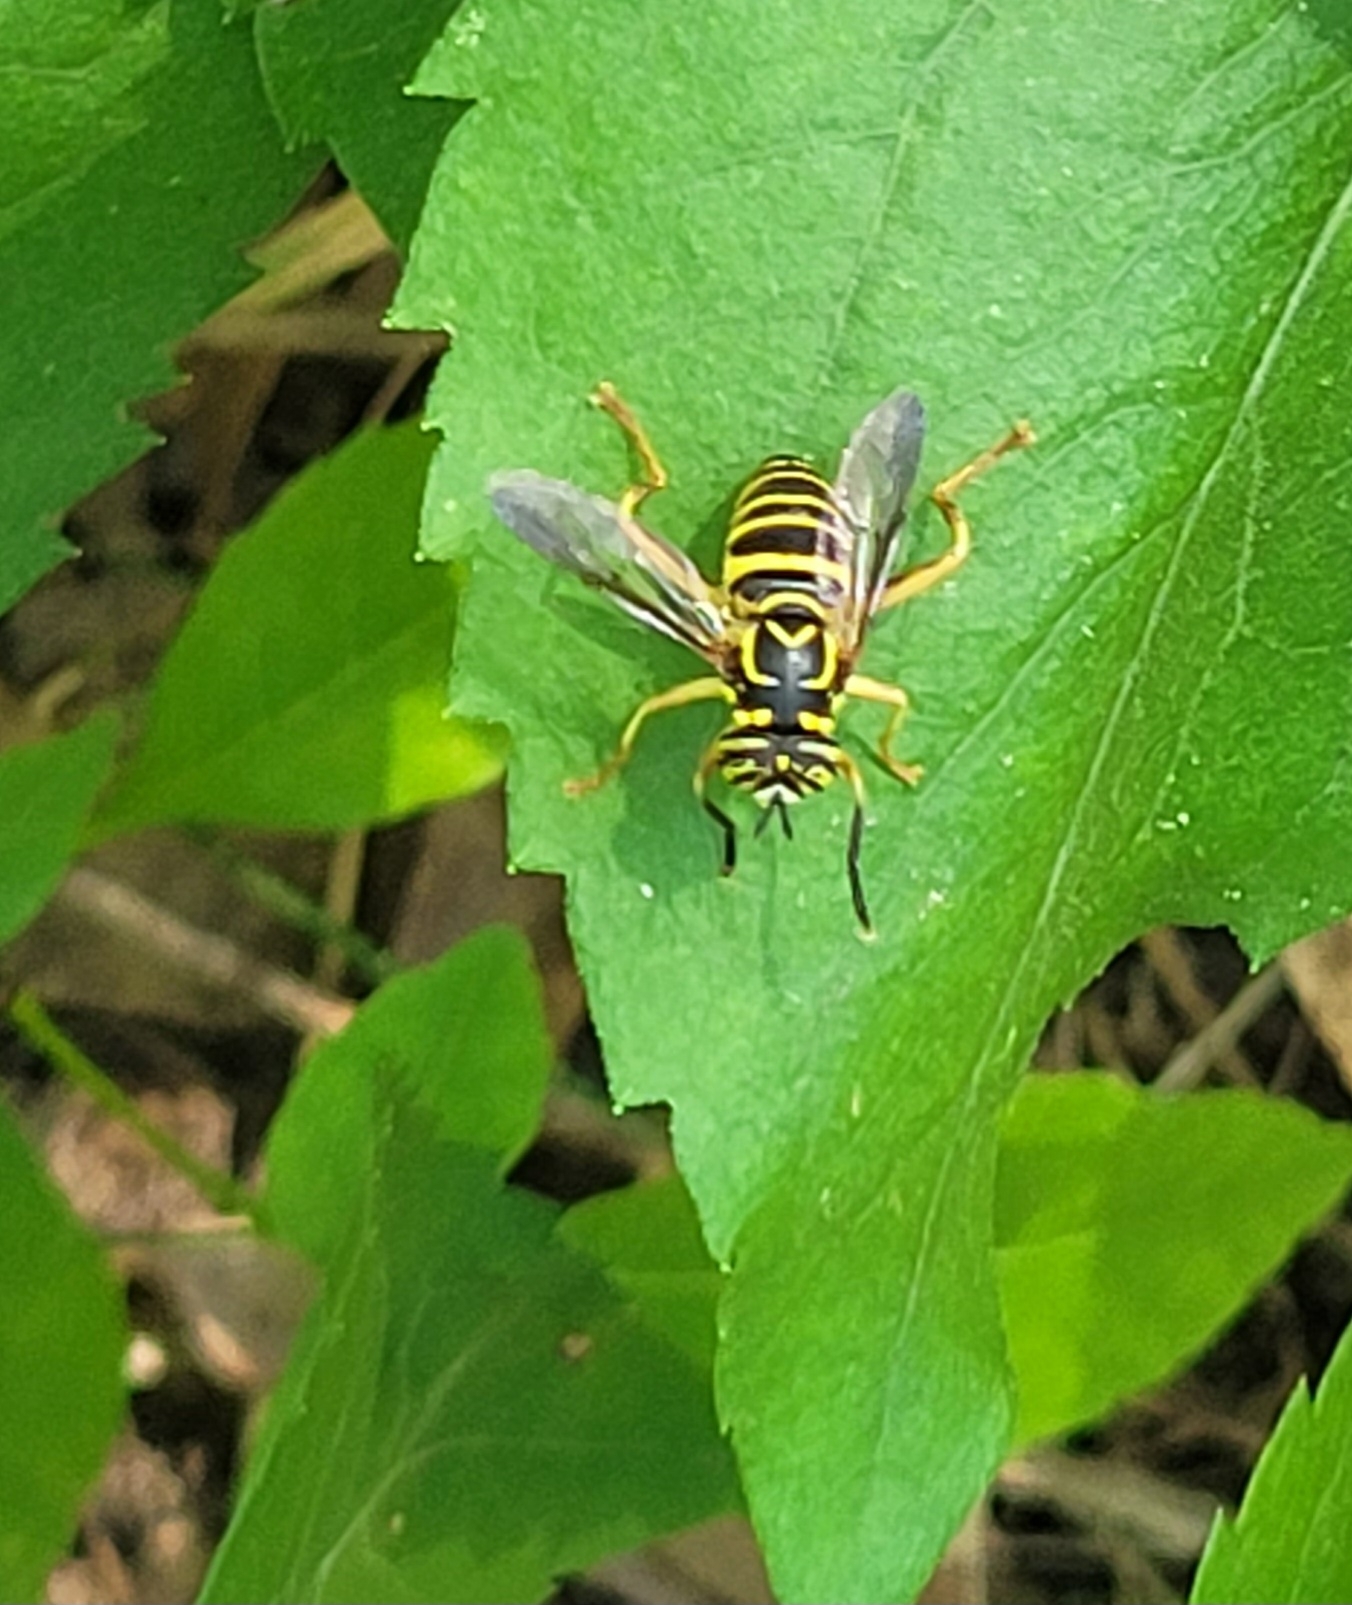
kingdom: Animalia
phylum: Arthropoda
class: Insecta
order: Diptera
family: Syrphidae
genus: Spilomyia
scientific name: Spilomyia longicornis
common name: Eastern hornet fly
